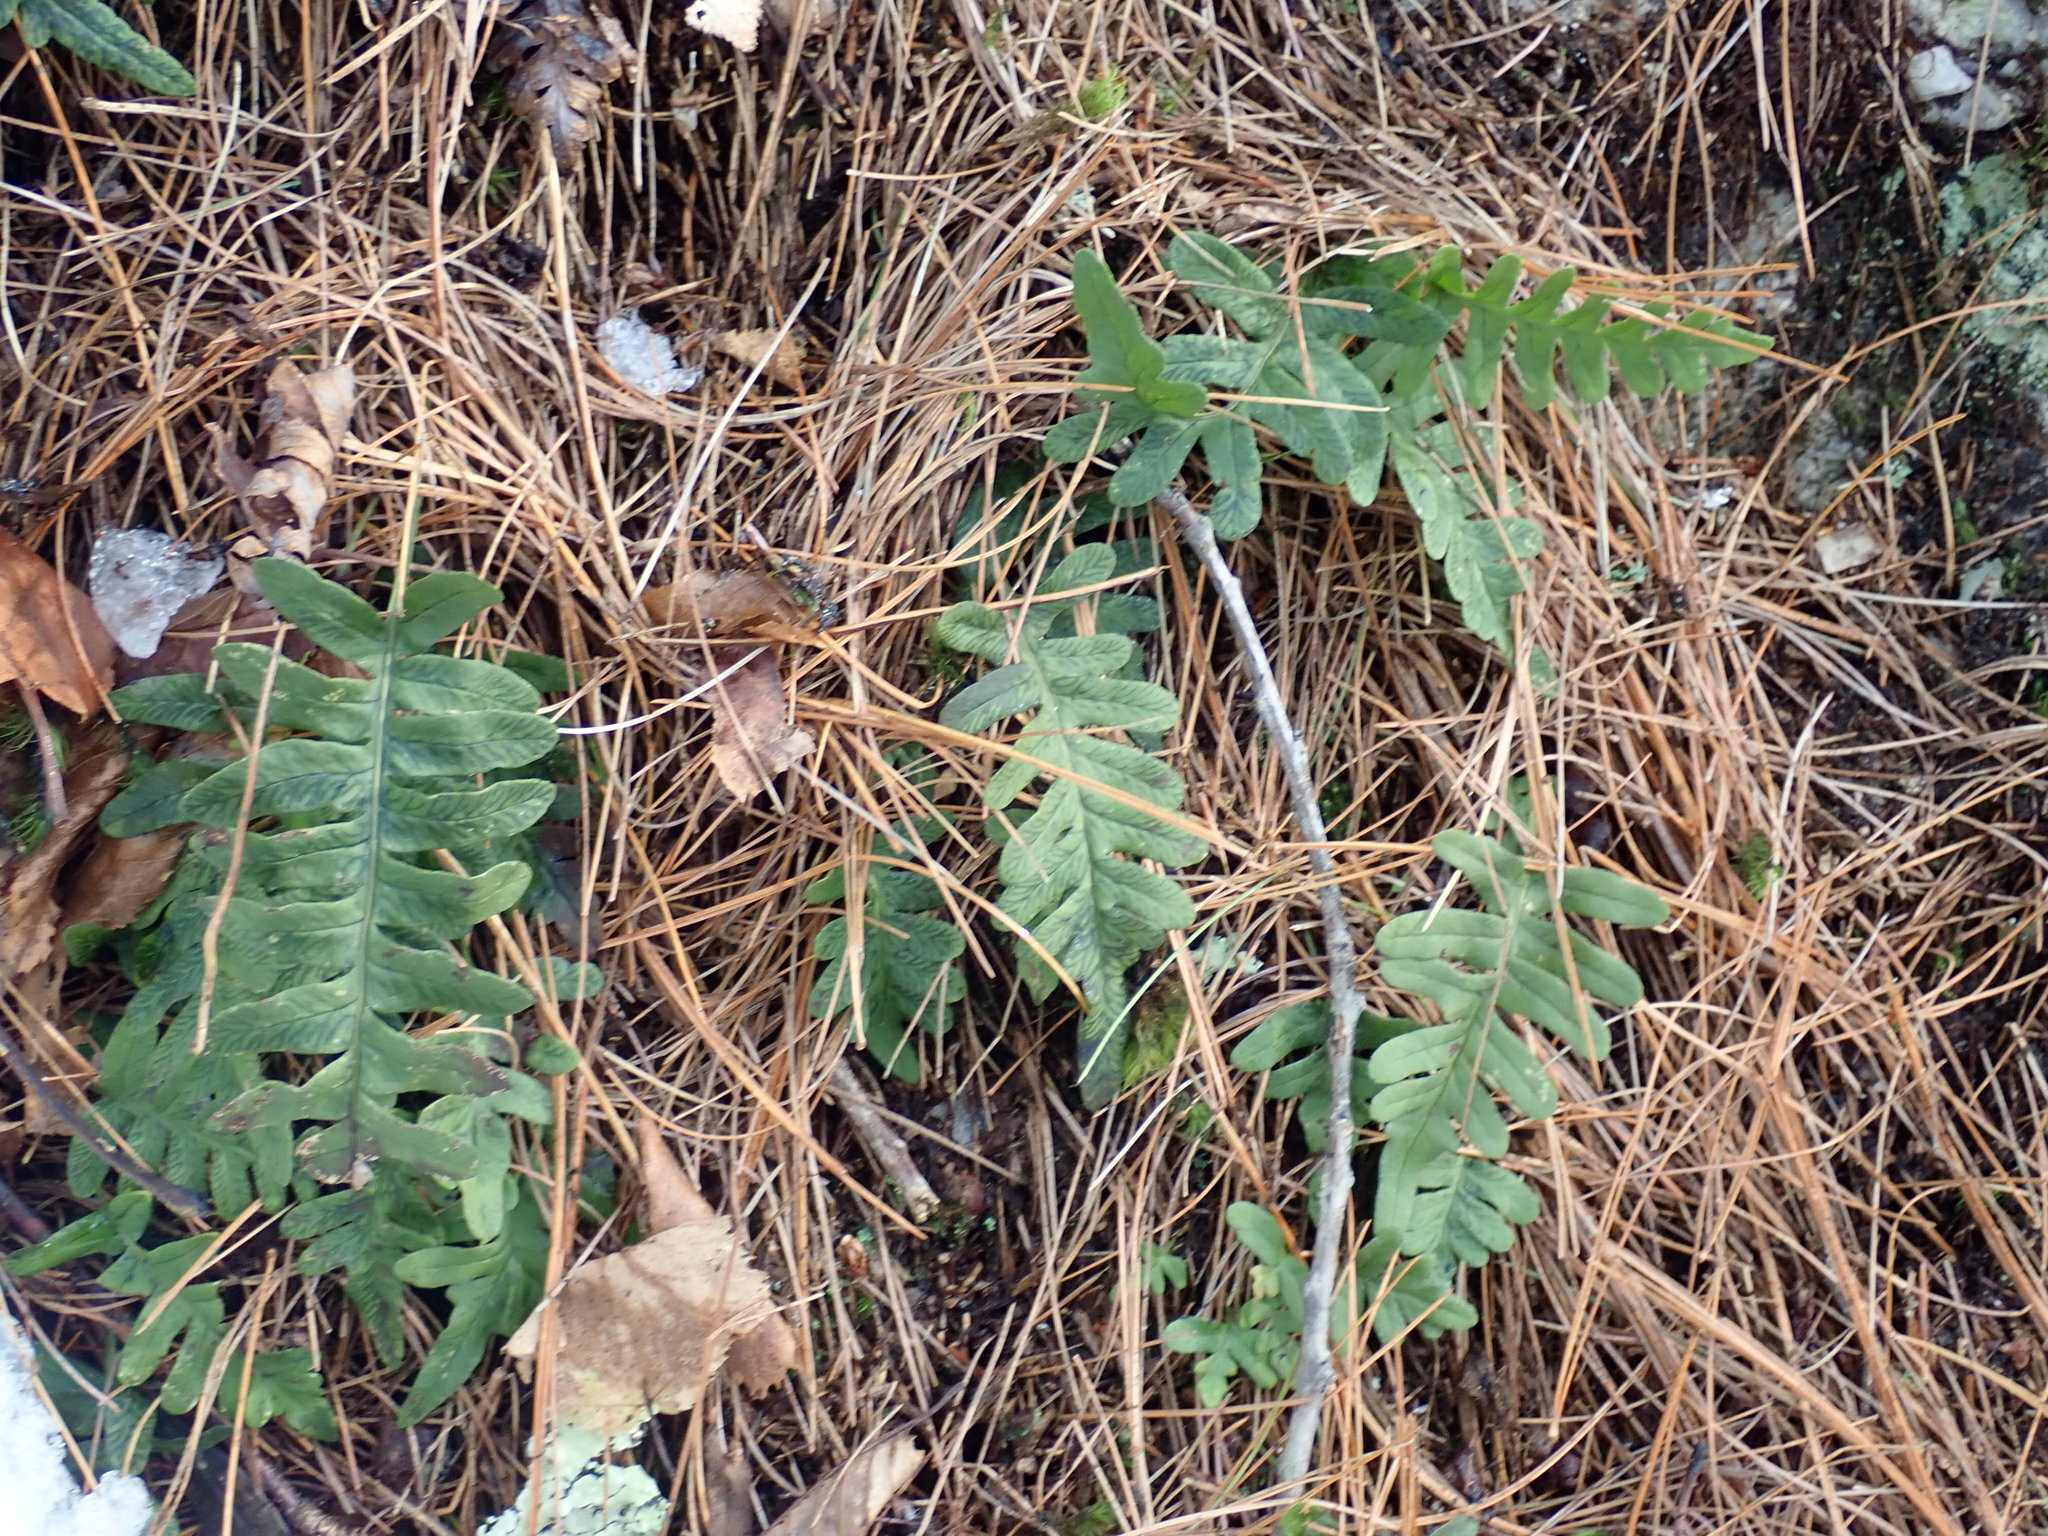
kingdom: Plantae
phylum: Tracheophyta
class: Polypodiopsida
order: Polypodiales
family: Polypodiaceae
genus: Polypodium
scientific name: Polypodium
